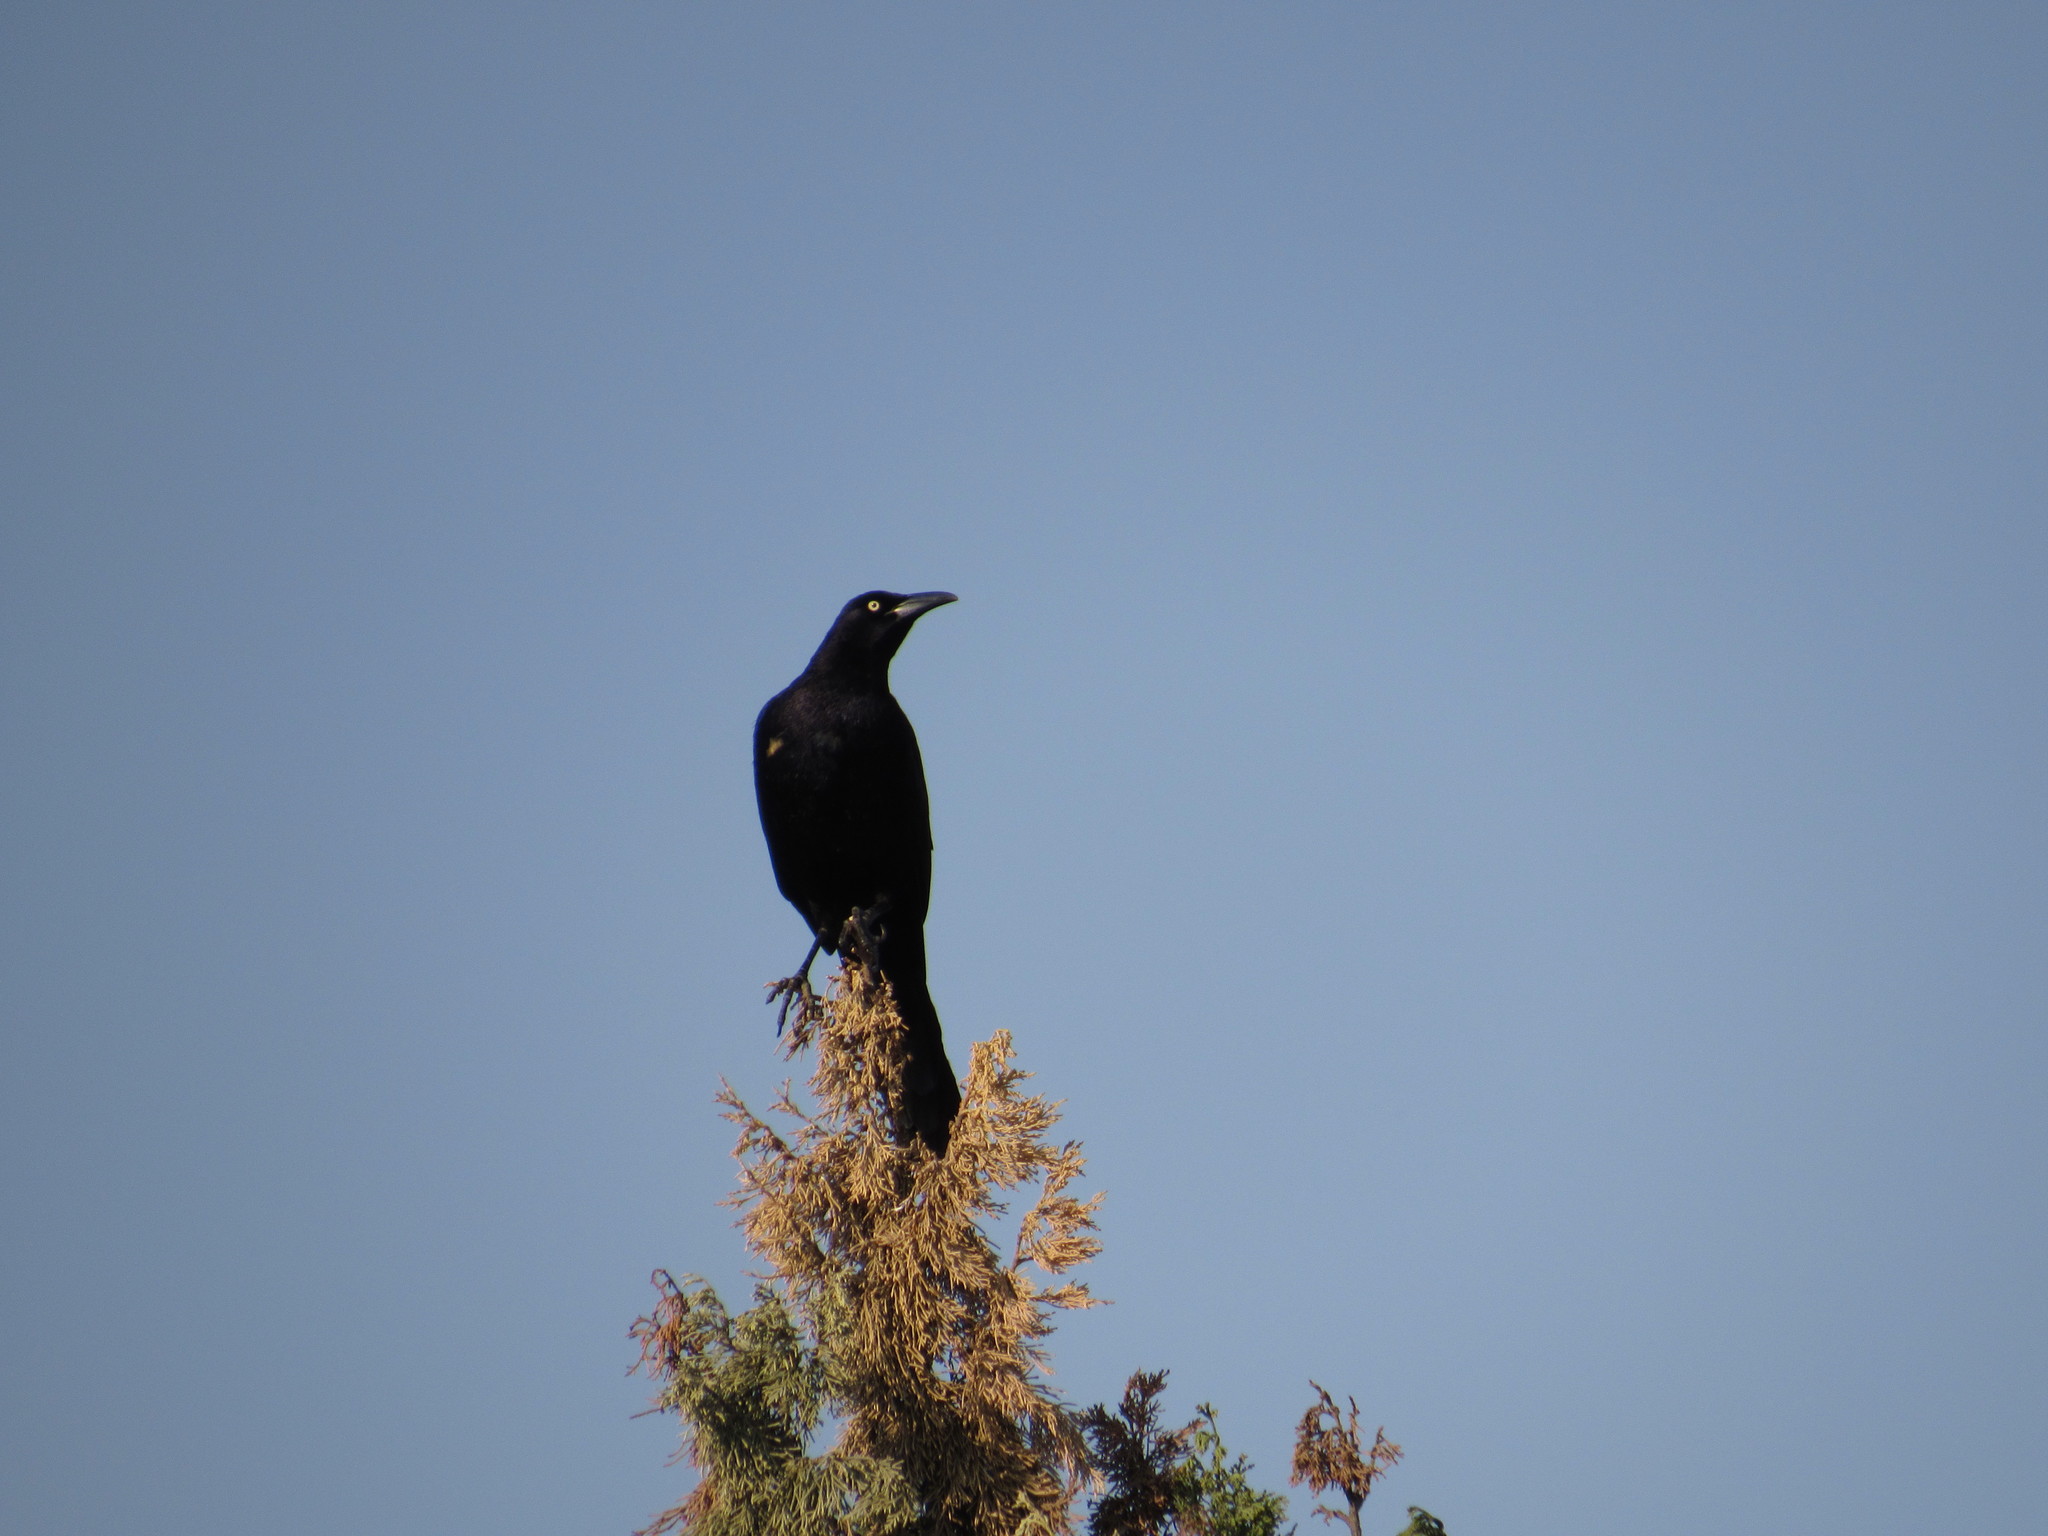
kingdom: Animalia
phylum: Chordata
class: Aves
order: Passeriformes
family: Icteridae
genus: Quiscalus
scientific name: Quiscalus mexicanus
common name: Great-tailed grackle
